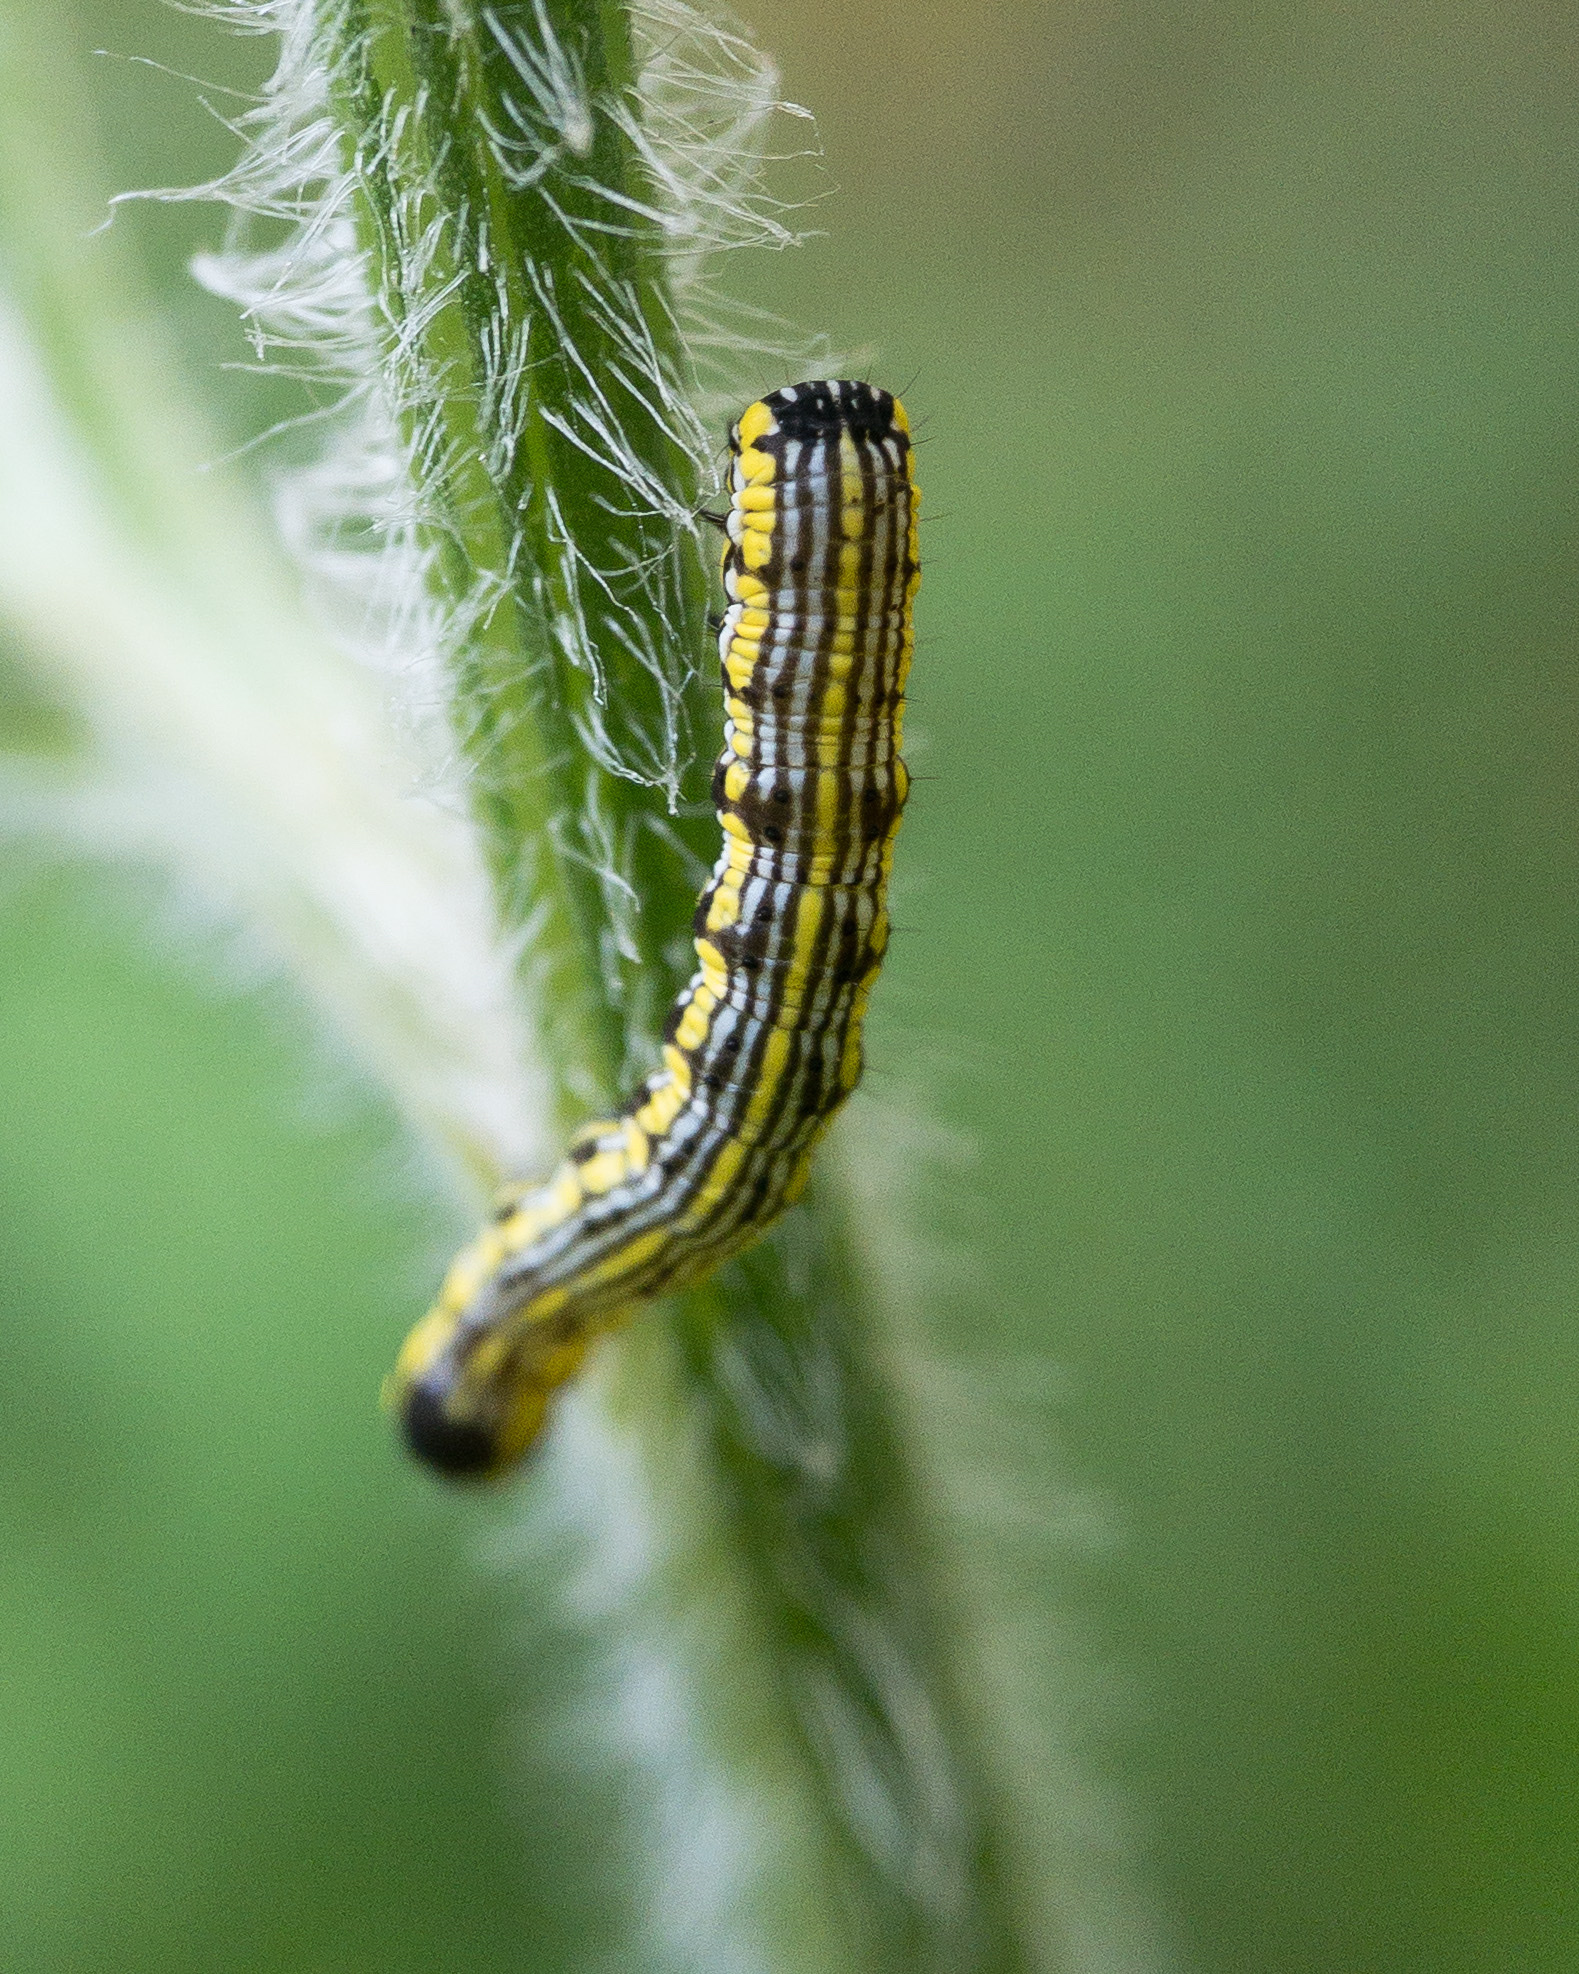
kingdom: Animalia
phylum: Arthropoda
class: Insecta
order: Lepidoptera
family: Noctuidae
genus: Cucullia
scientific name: Cucullia convexipennis
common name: Brown-hooded owlet
